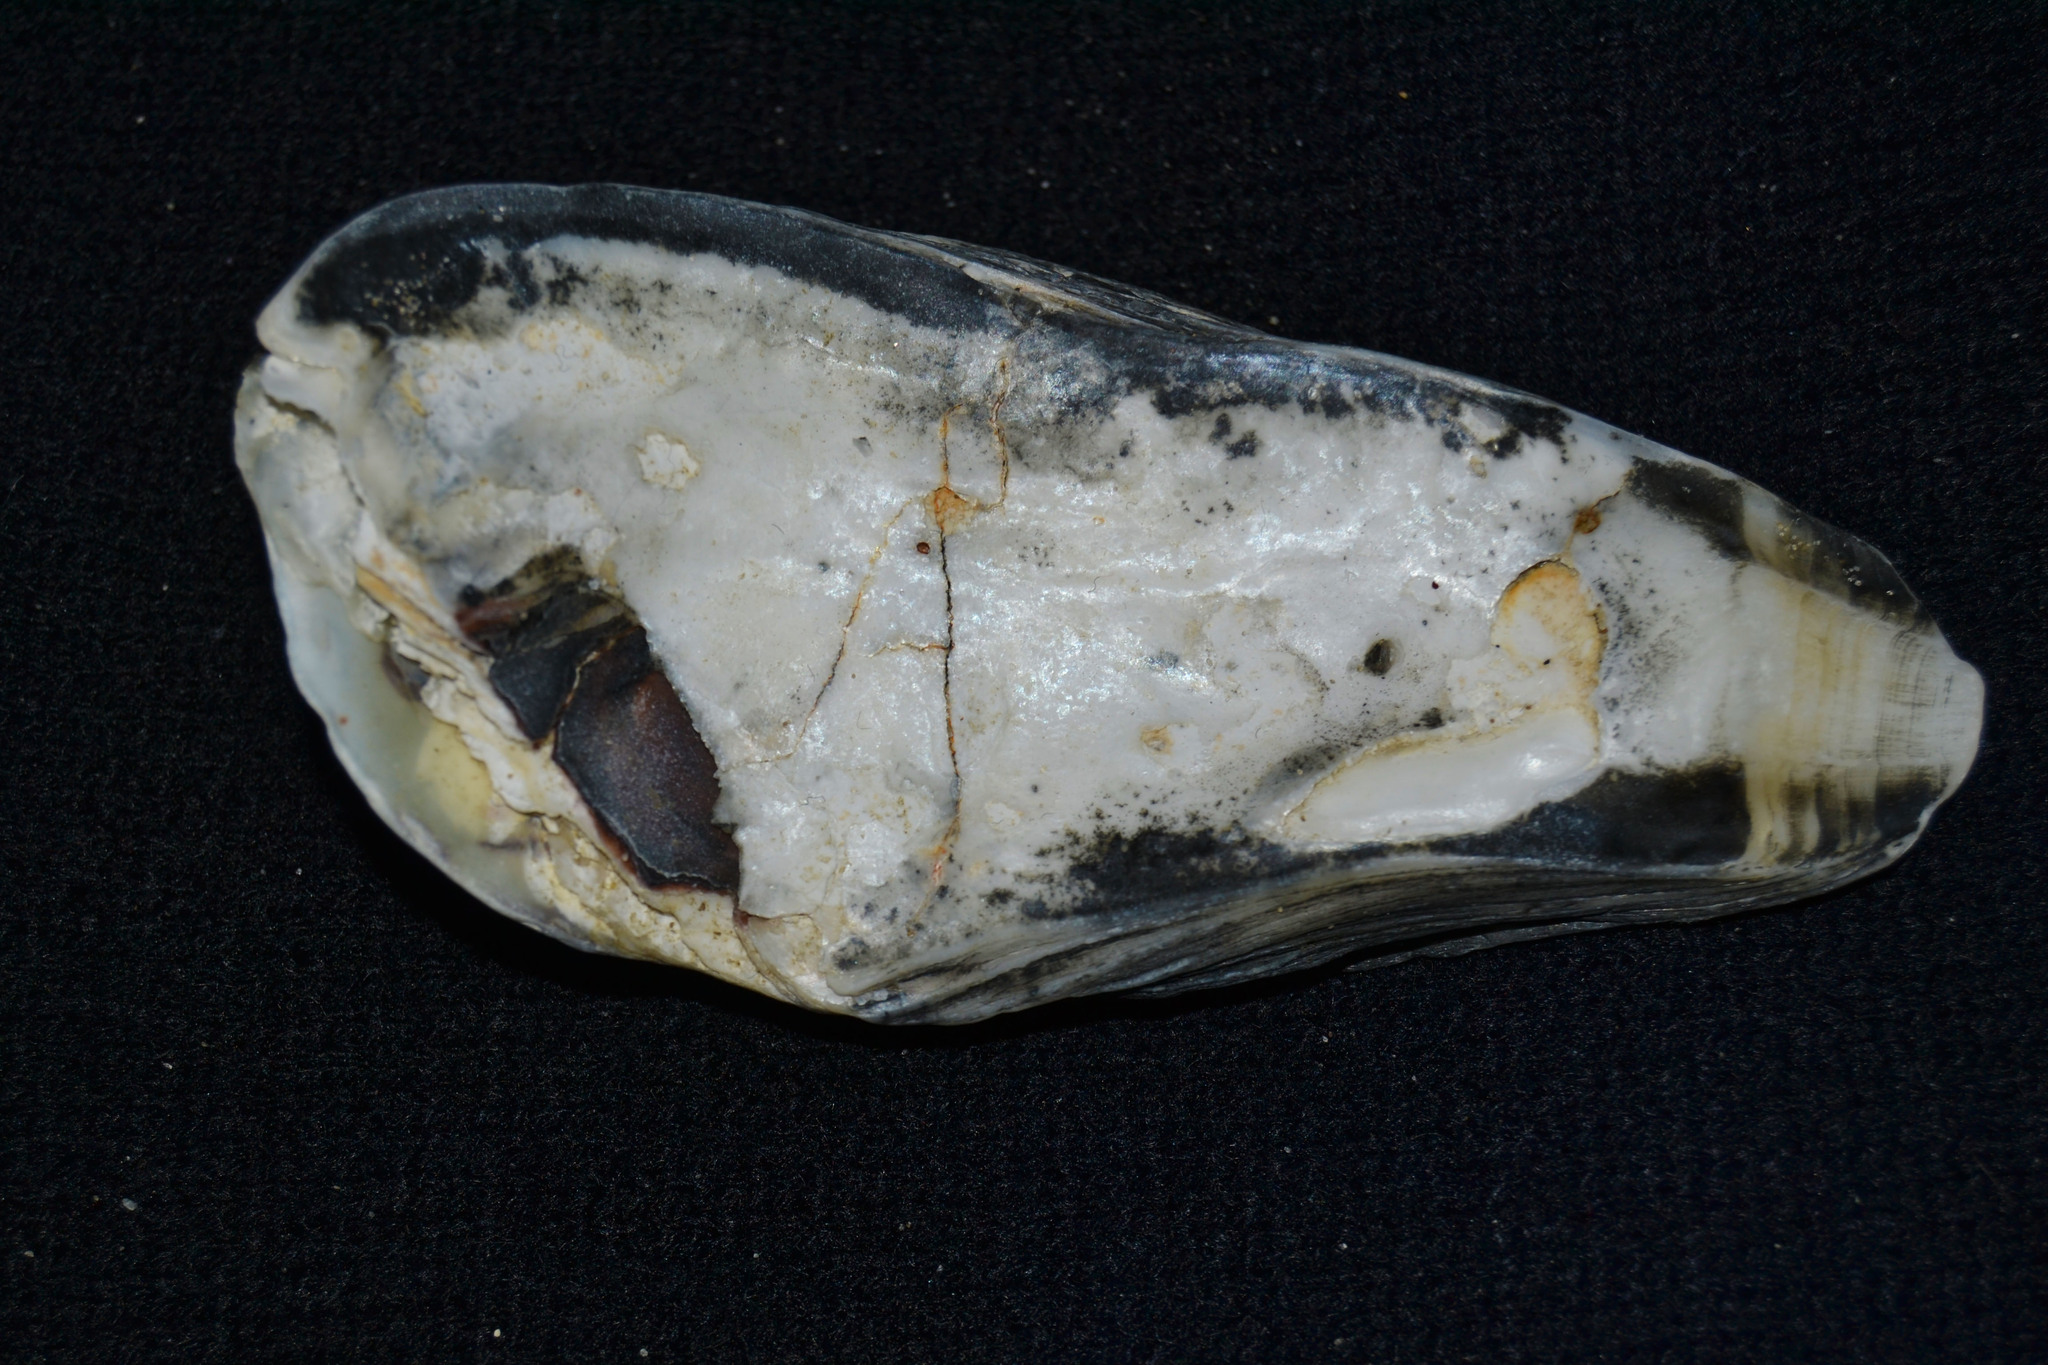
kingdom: Animalia
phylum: Mollusca
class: Bivalvia
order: Ostreida
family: Ostreidae
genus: Crassostrea
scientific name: Crassostrea virginica
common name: American oyster
